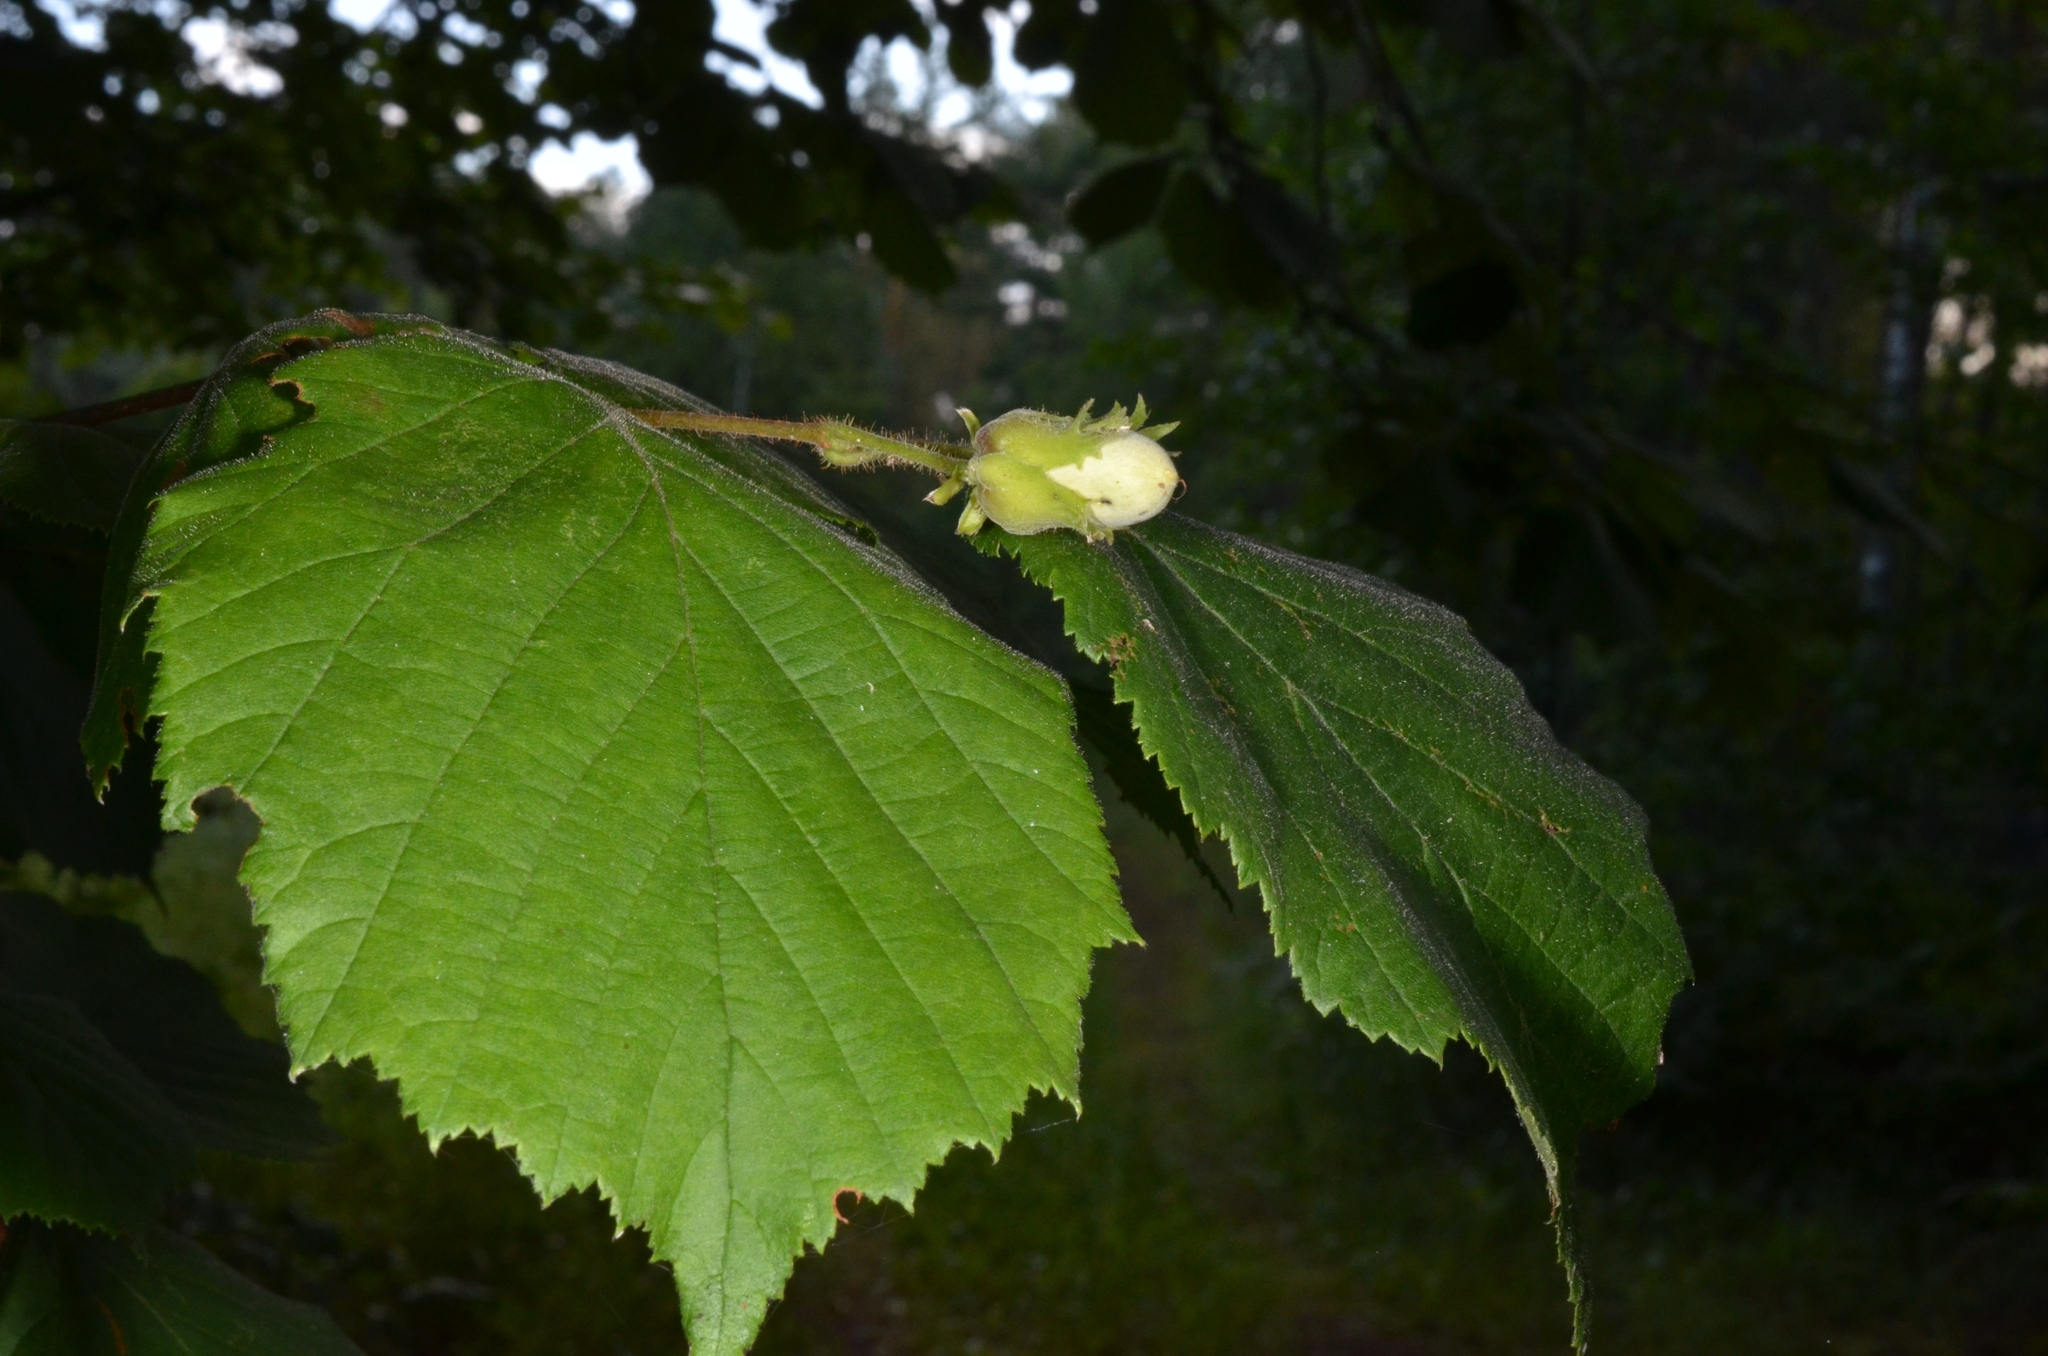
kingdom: Plantae
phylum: Tracheophyta
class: Magnoliopsida
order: Fagales
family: Betulaceae
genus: Corylus
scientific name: Corylus avellana
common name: European hazel
